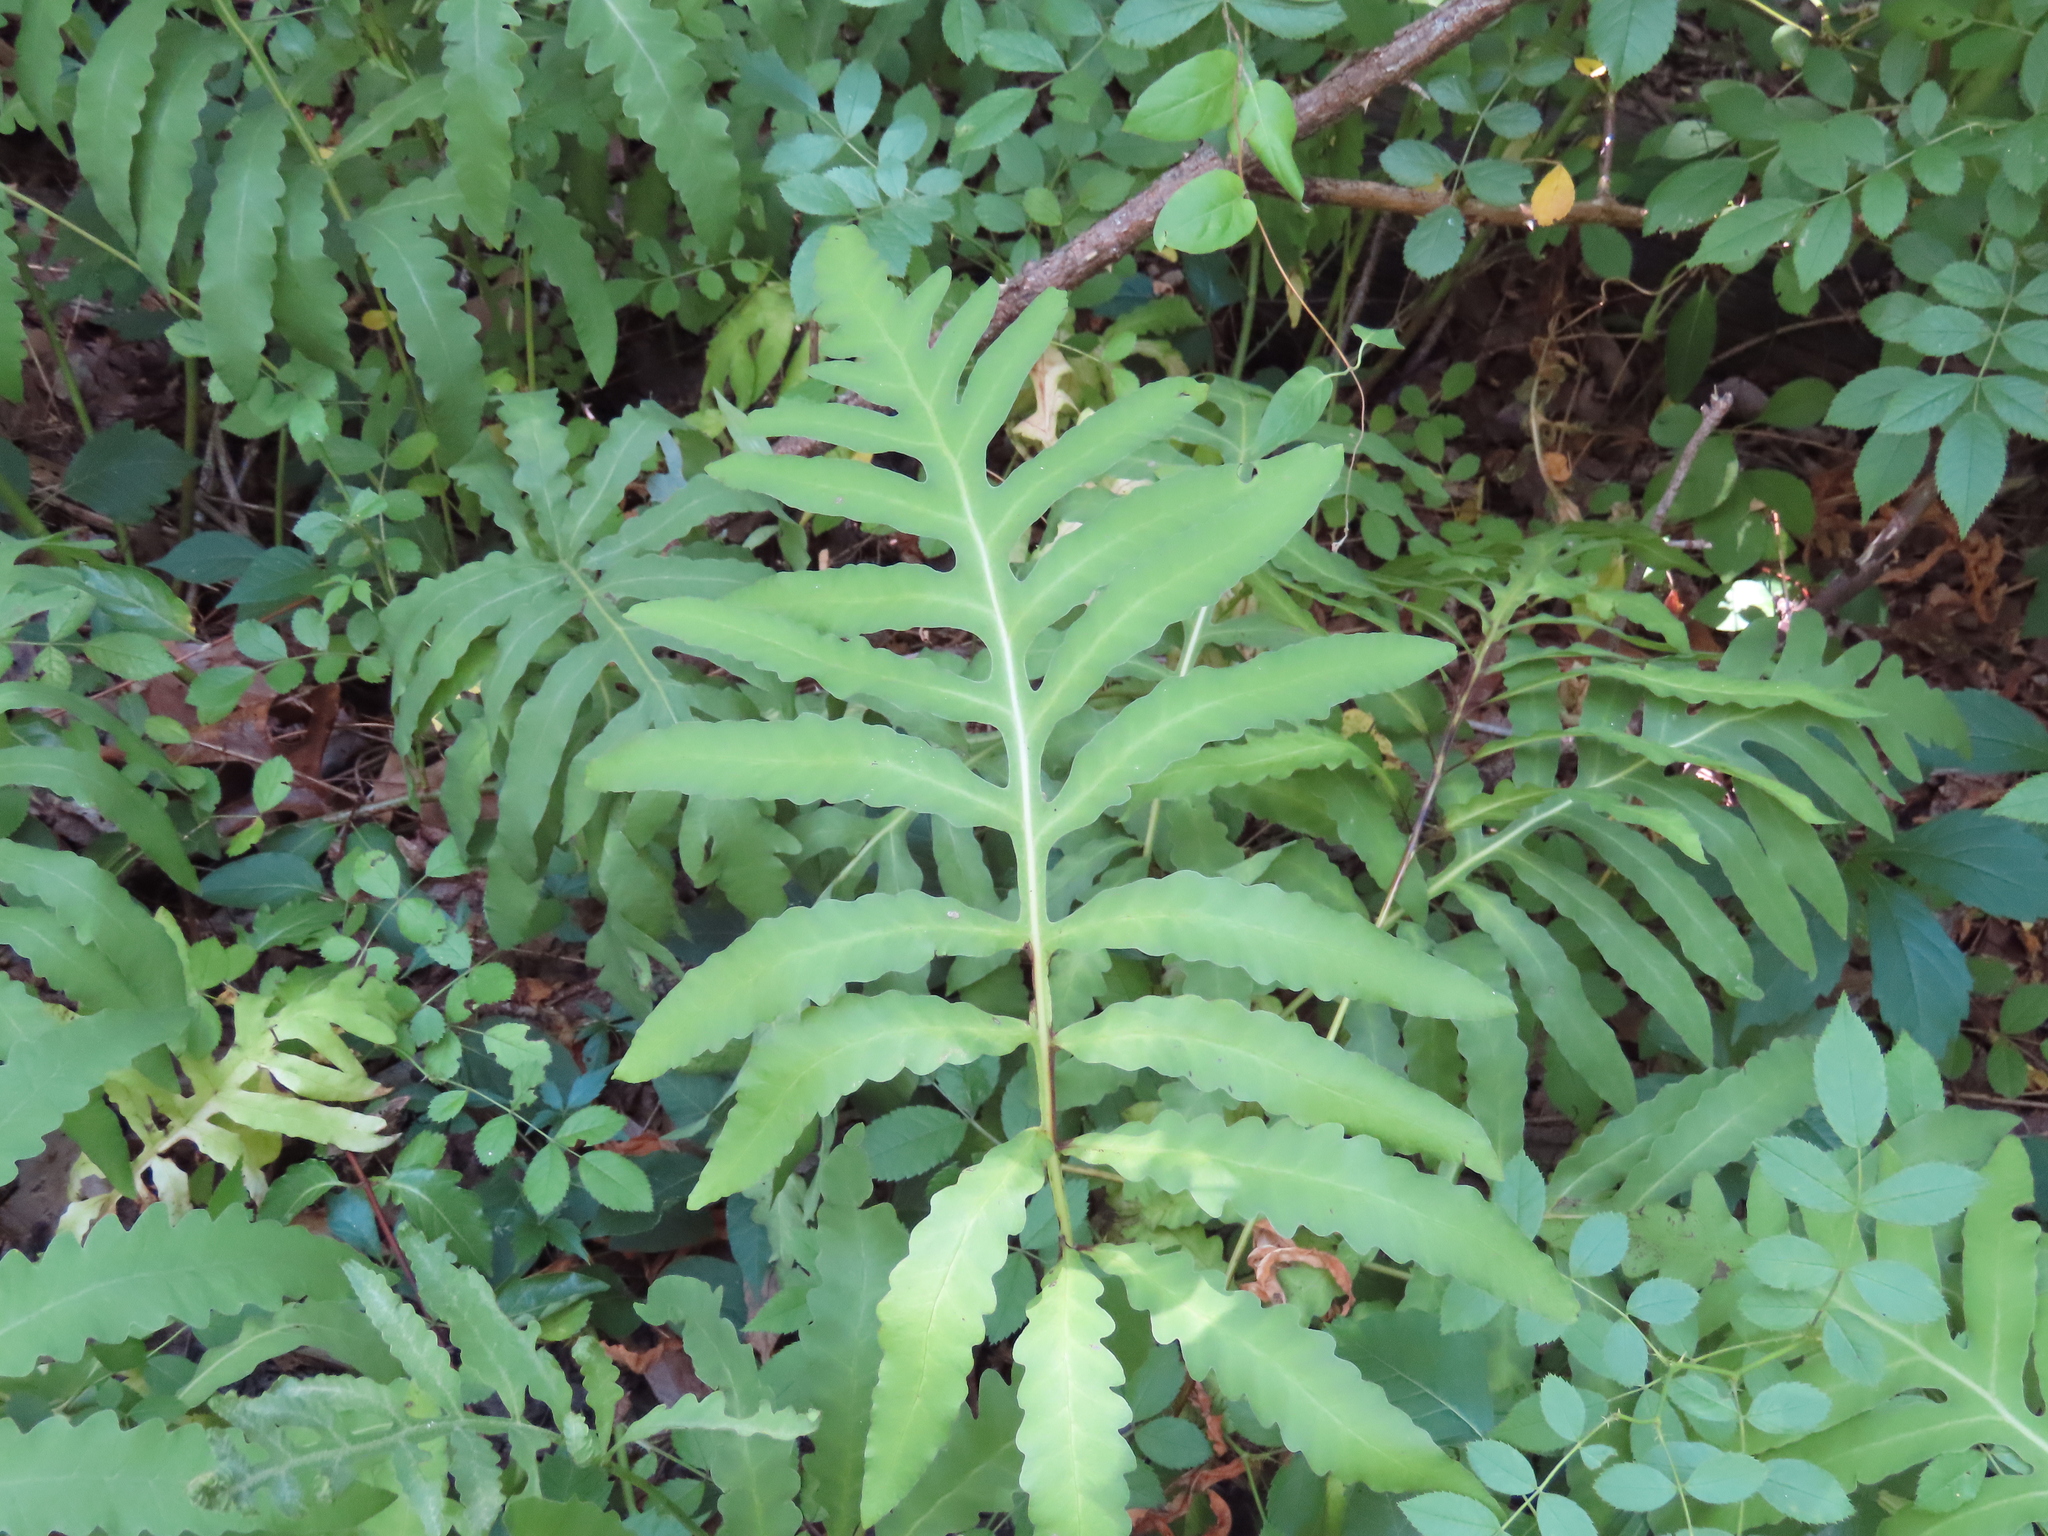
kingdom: Plantae
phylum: Tracheophyta
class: Polypodiopsida
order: Polypodiales
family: Onocleaceae
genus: Onoclea
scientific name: Onoclea sensibilis
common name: Sensitive fern
